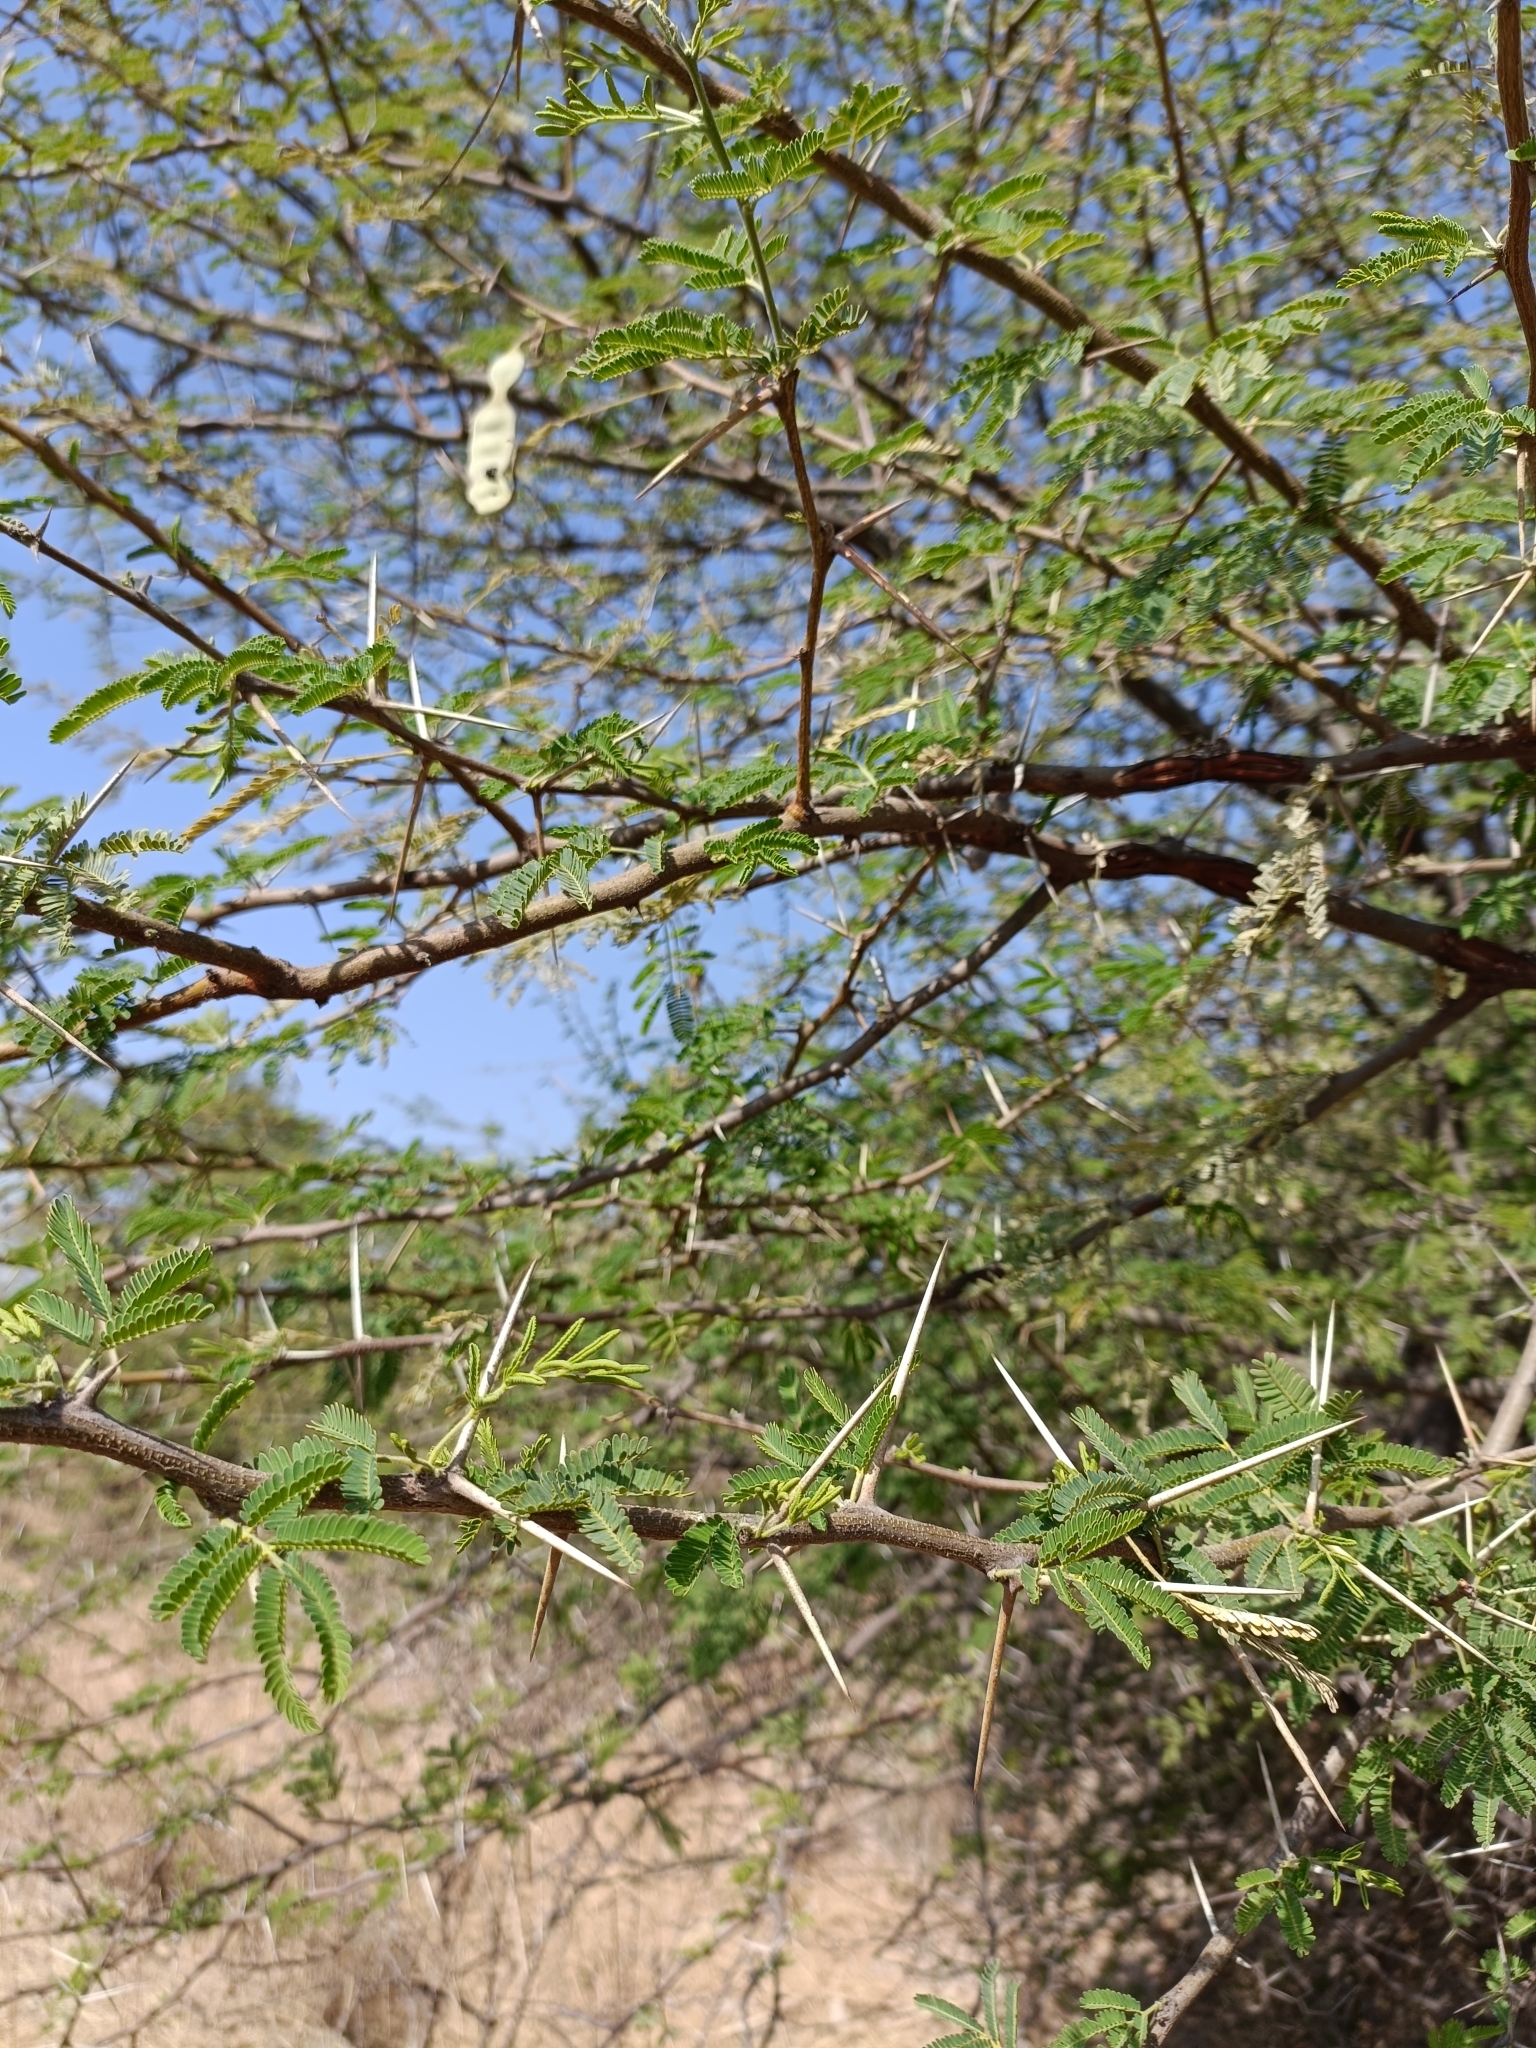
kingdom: Plantae
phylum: Tracheophyta
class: Magnoliopsida
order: Fabales
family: Fabaceae
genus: Vachellia
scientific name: Vachellia nilotica
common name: Arabic gumtree
